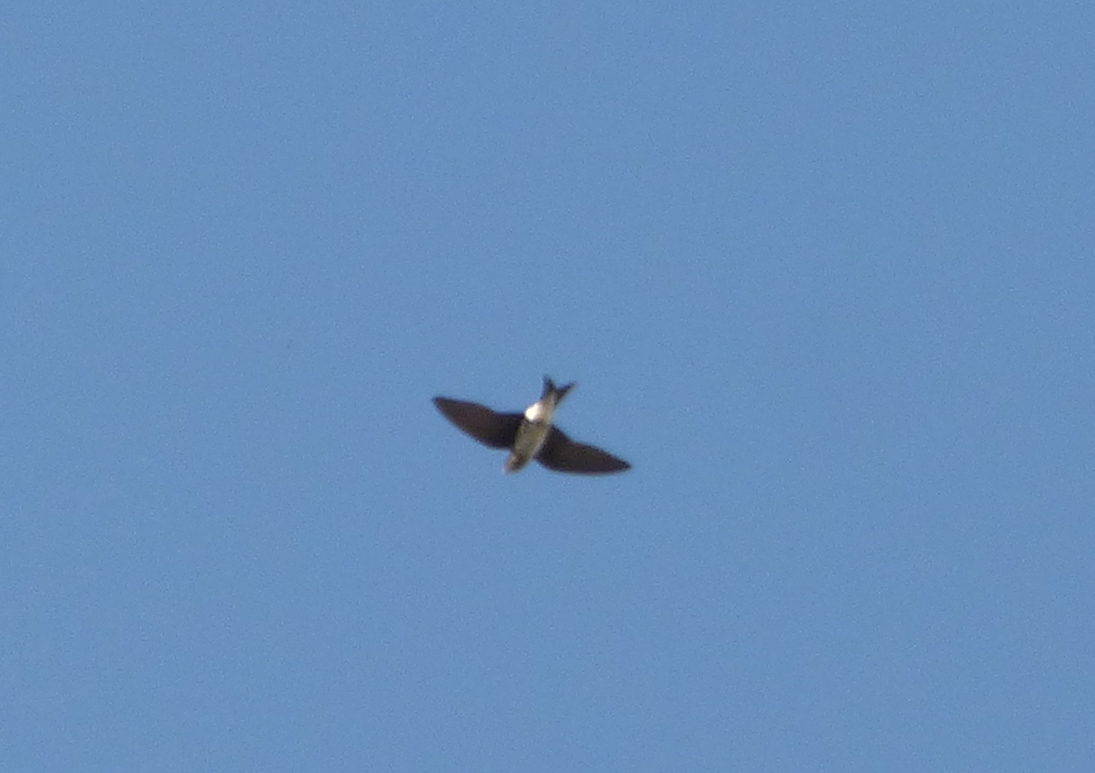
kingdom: Animalia
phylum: Chordata
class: Aves
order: Passeriformes
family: Hirundinidae
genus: Progne
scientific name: Progne chalybea
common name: Grey-breasted martin
